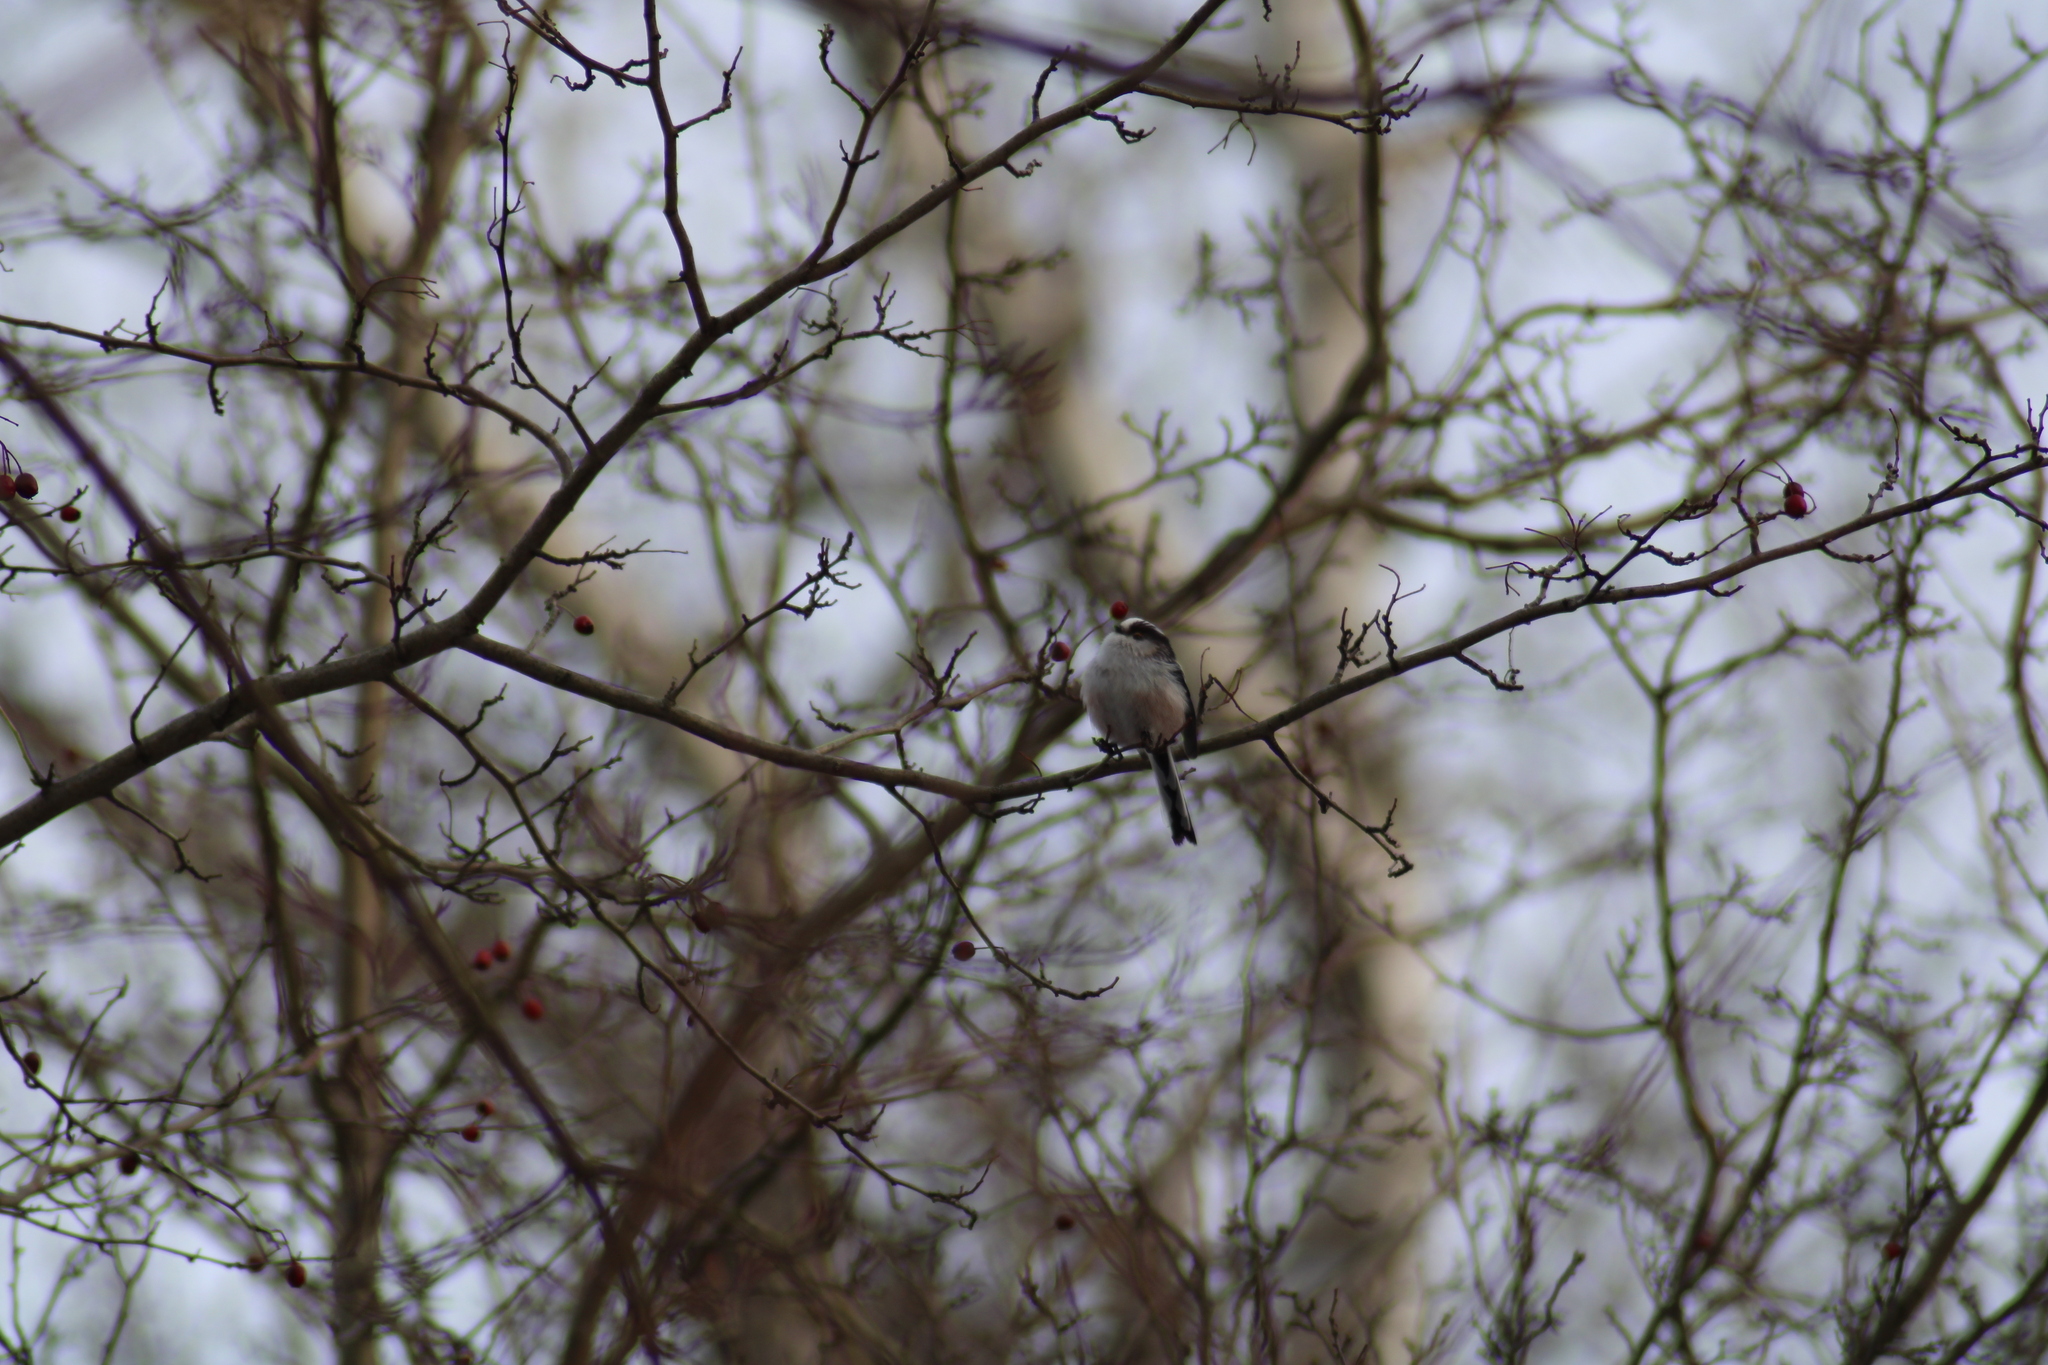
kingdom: Animalia
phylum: Chordata
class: Aves
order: Passeriformes
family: Aegithalidae
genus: Aegithalos
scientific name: Aegithalos caudatus
